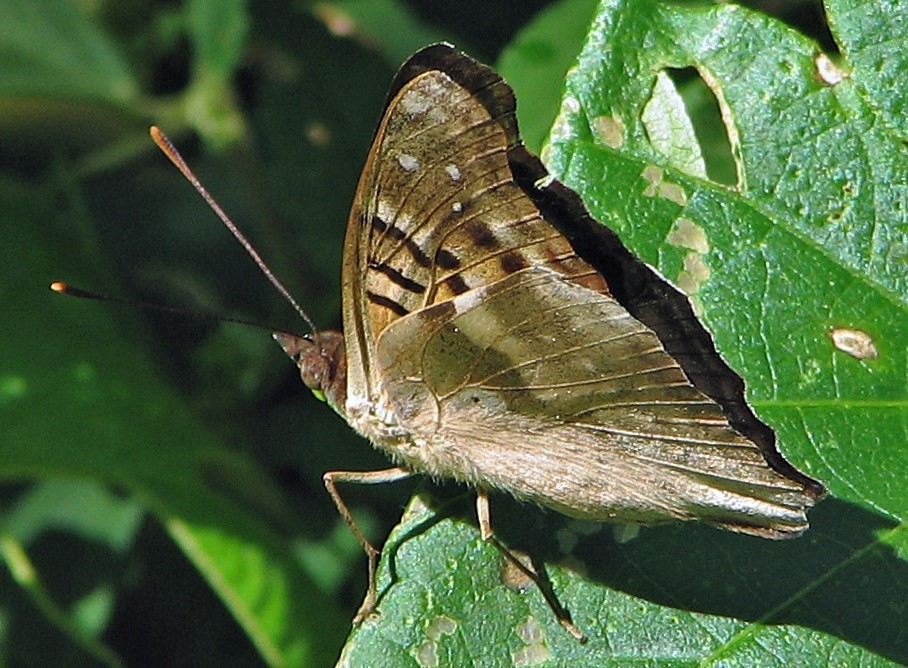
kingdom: Animalia
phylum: Arthropoda
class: Insecta
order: Lepidoptera
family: Nymphalidae
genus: Doxocopa
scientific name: Doxocopa laurentia
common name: Turquoise emperor
